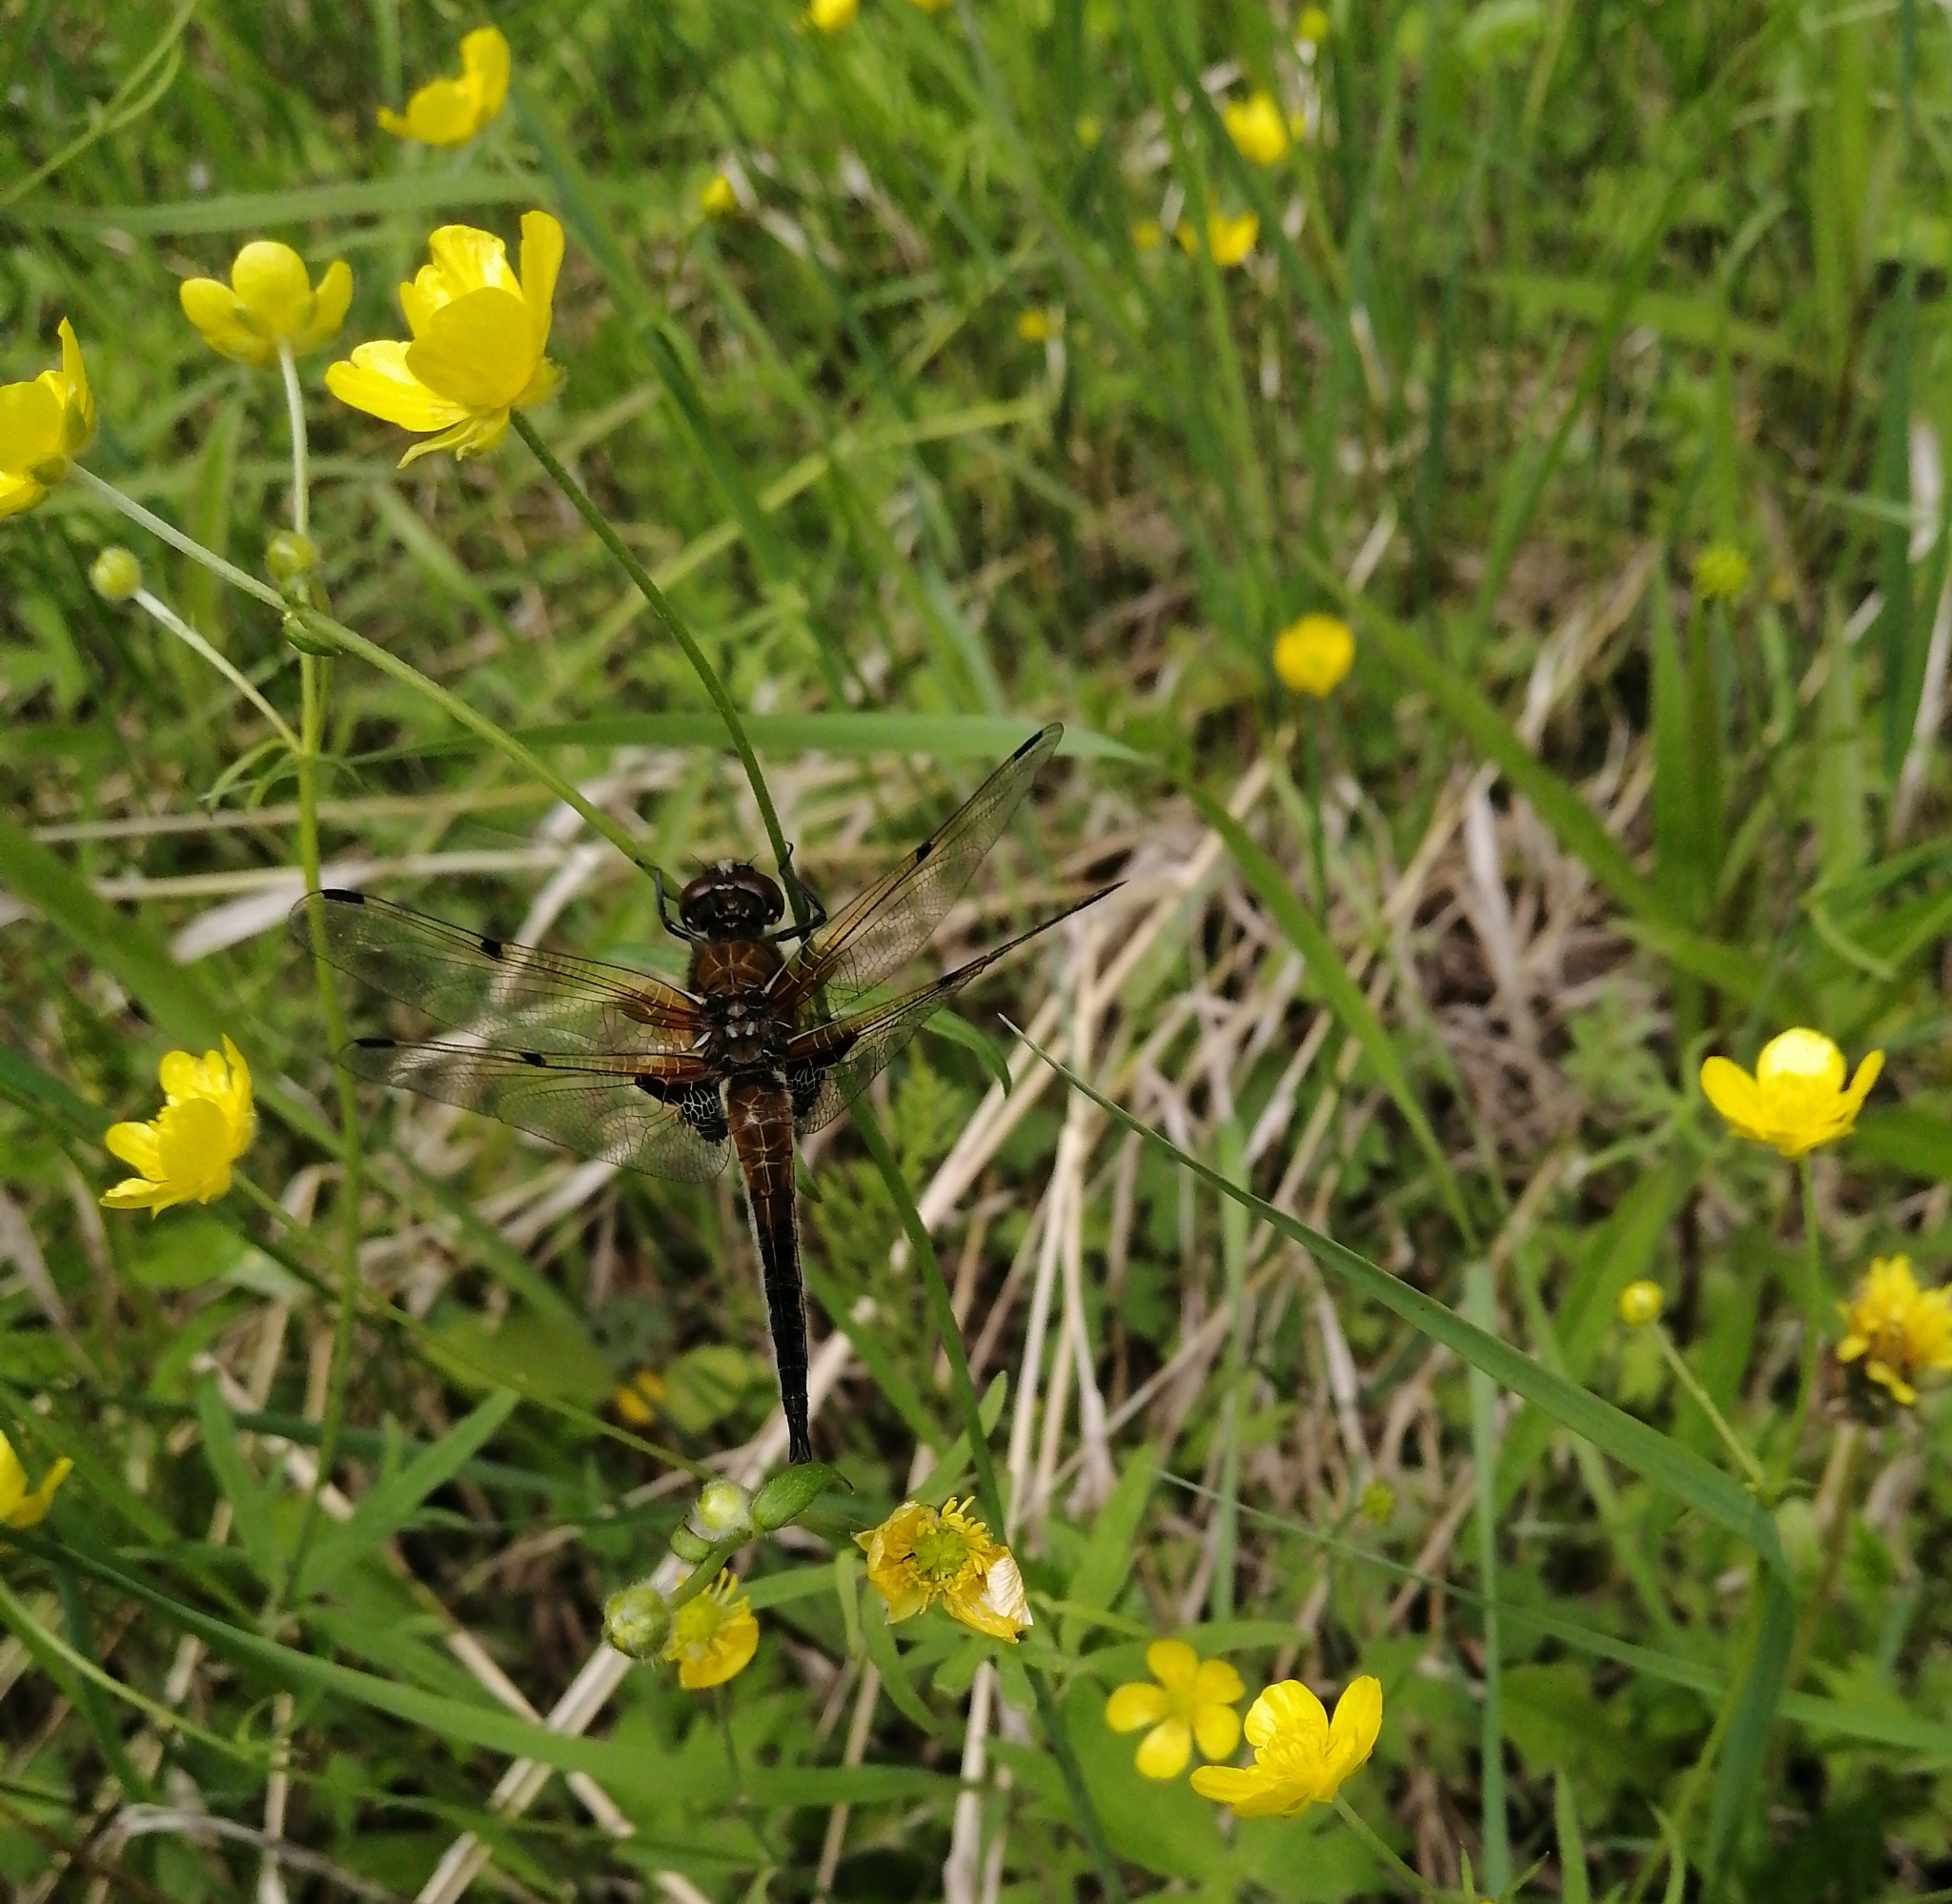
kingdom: Animalia
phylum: Arthropoda
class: Insecta
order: Odonata
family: Libellulidae
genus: Libellula
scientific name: Libellula quadrimaculata
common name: Four-spotted chaser
